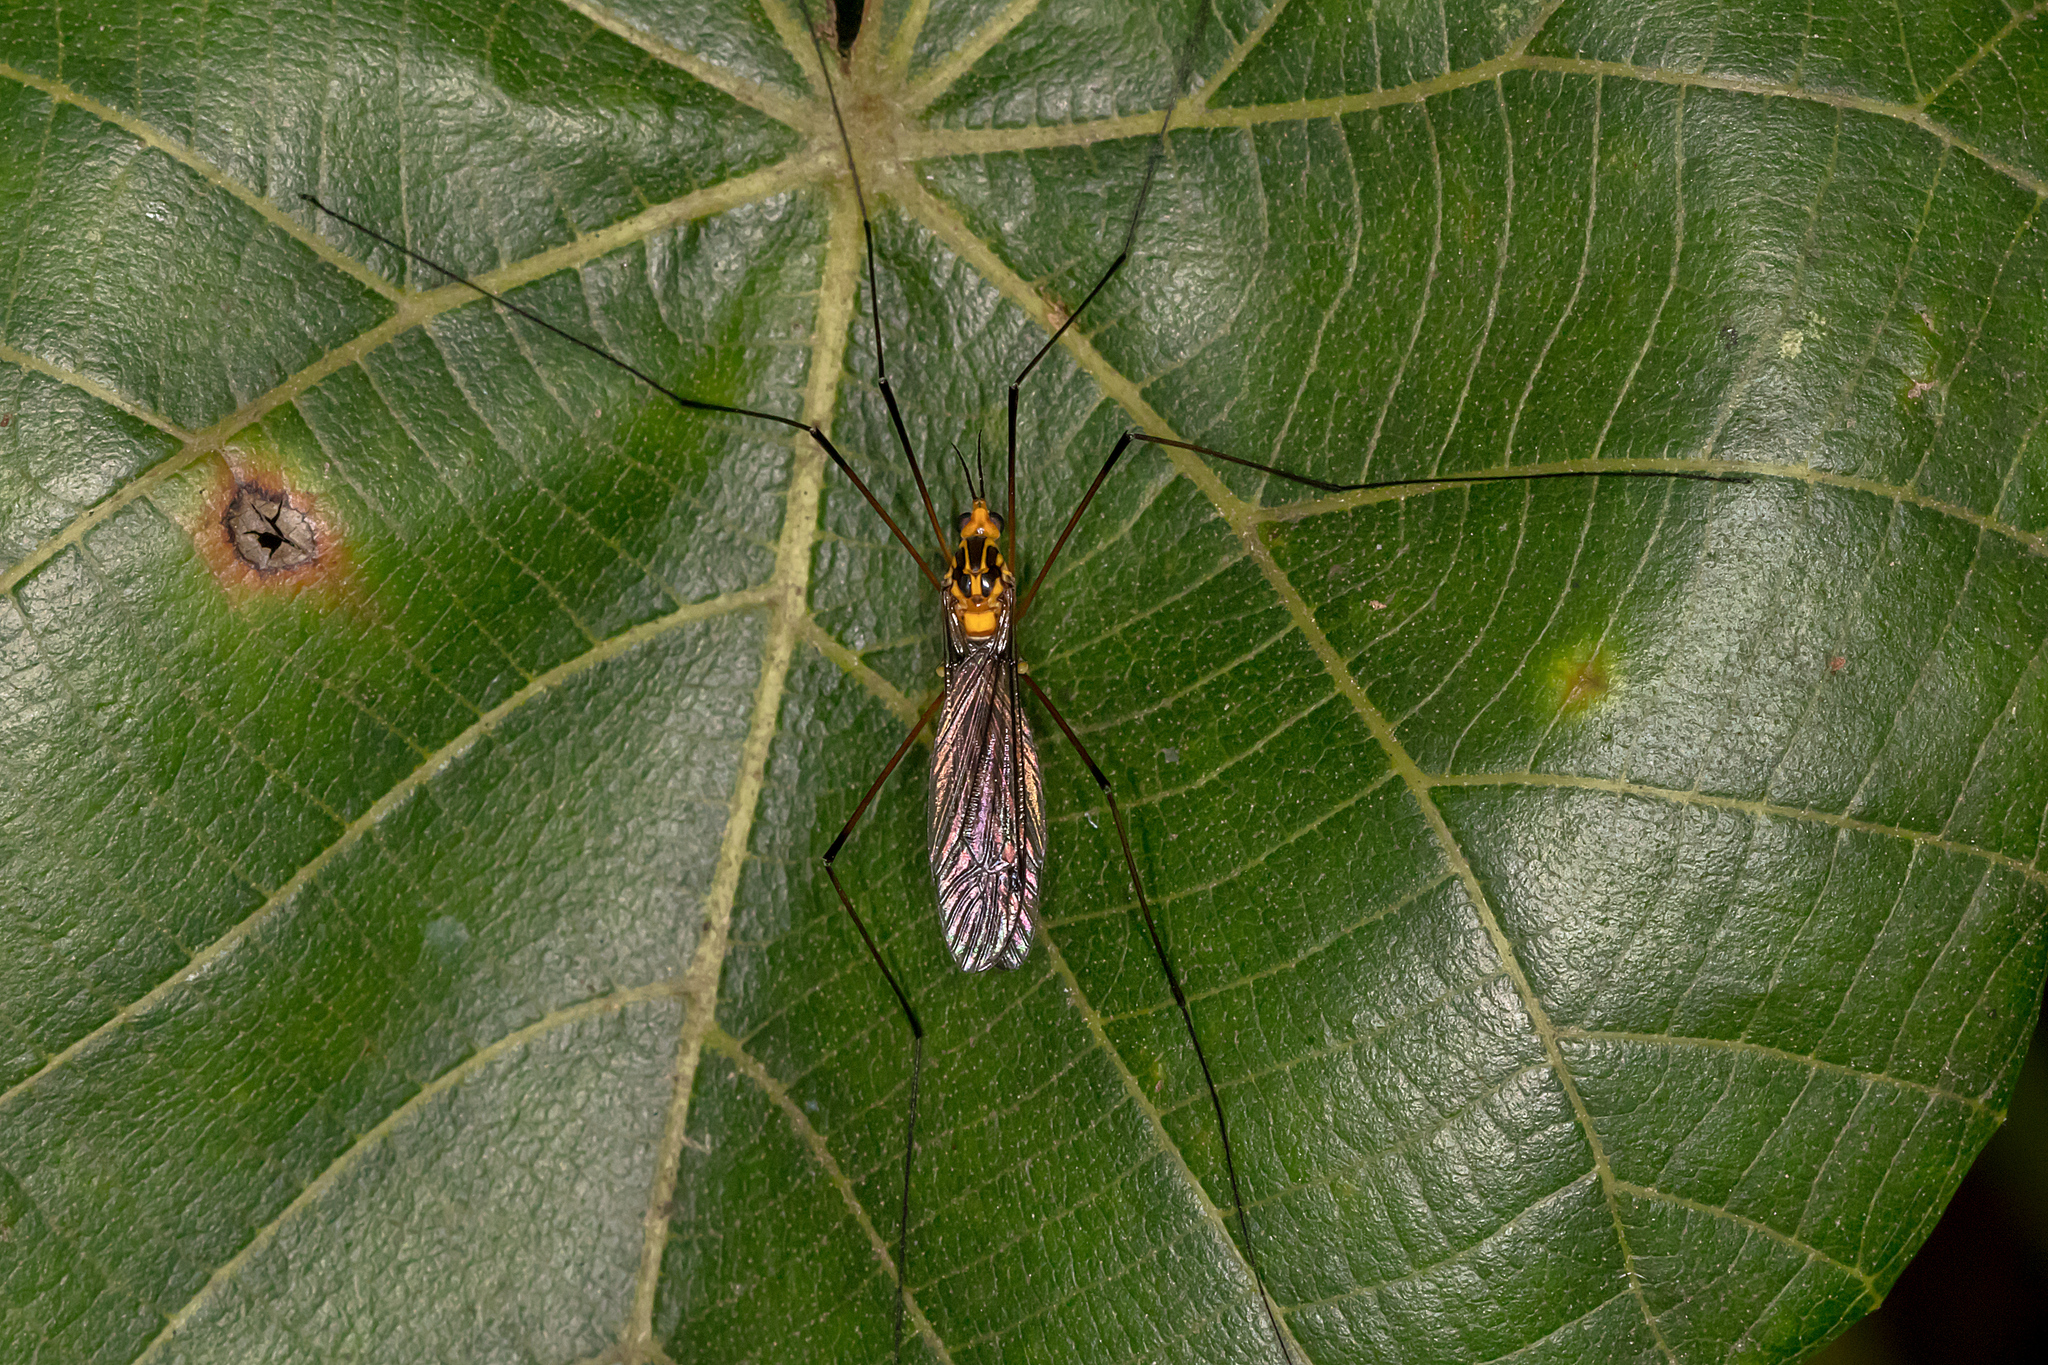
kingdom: Animalia
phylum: Arthropoda
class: Insecta
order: Diptera
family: Tipulidae
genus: Nephrotoma
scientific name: Nephrotoma australasiae
